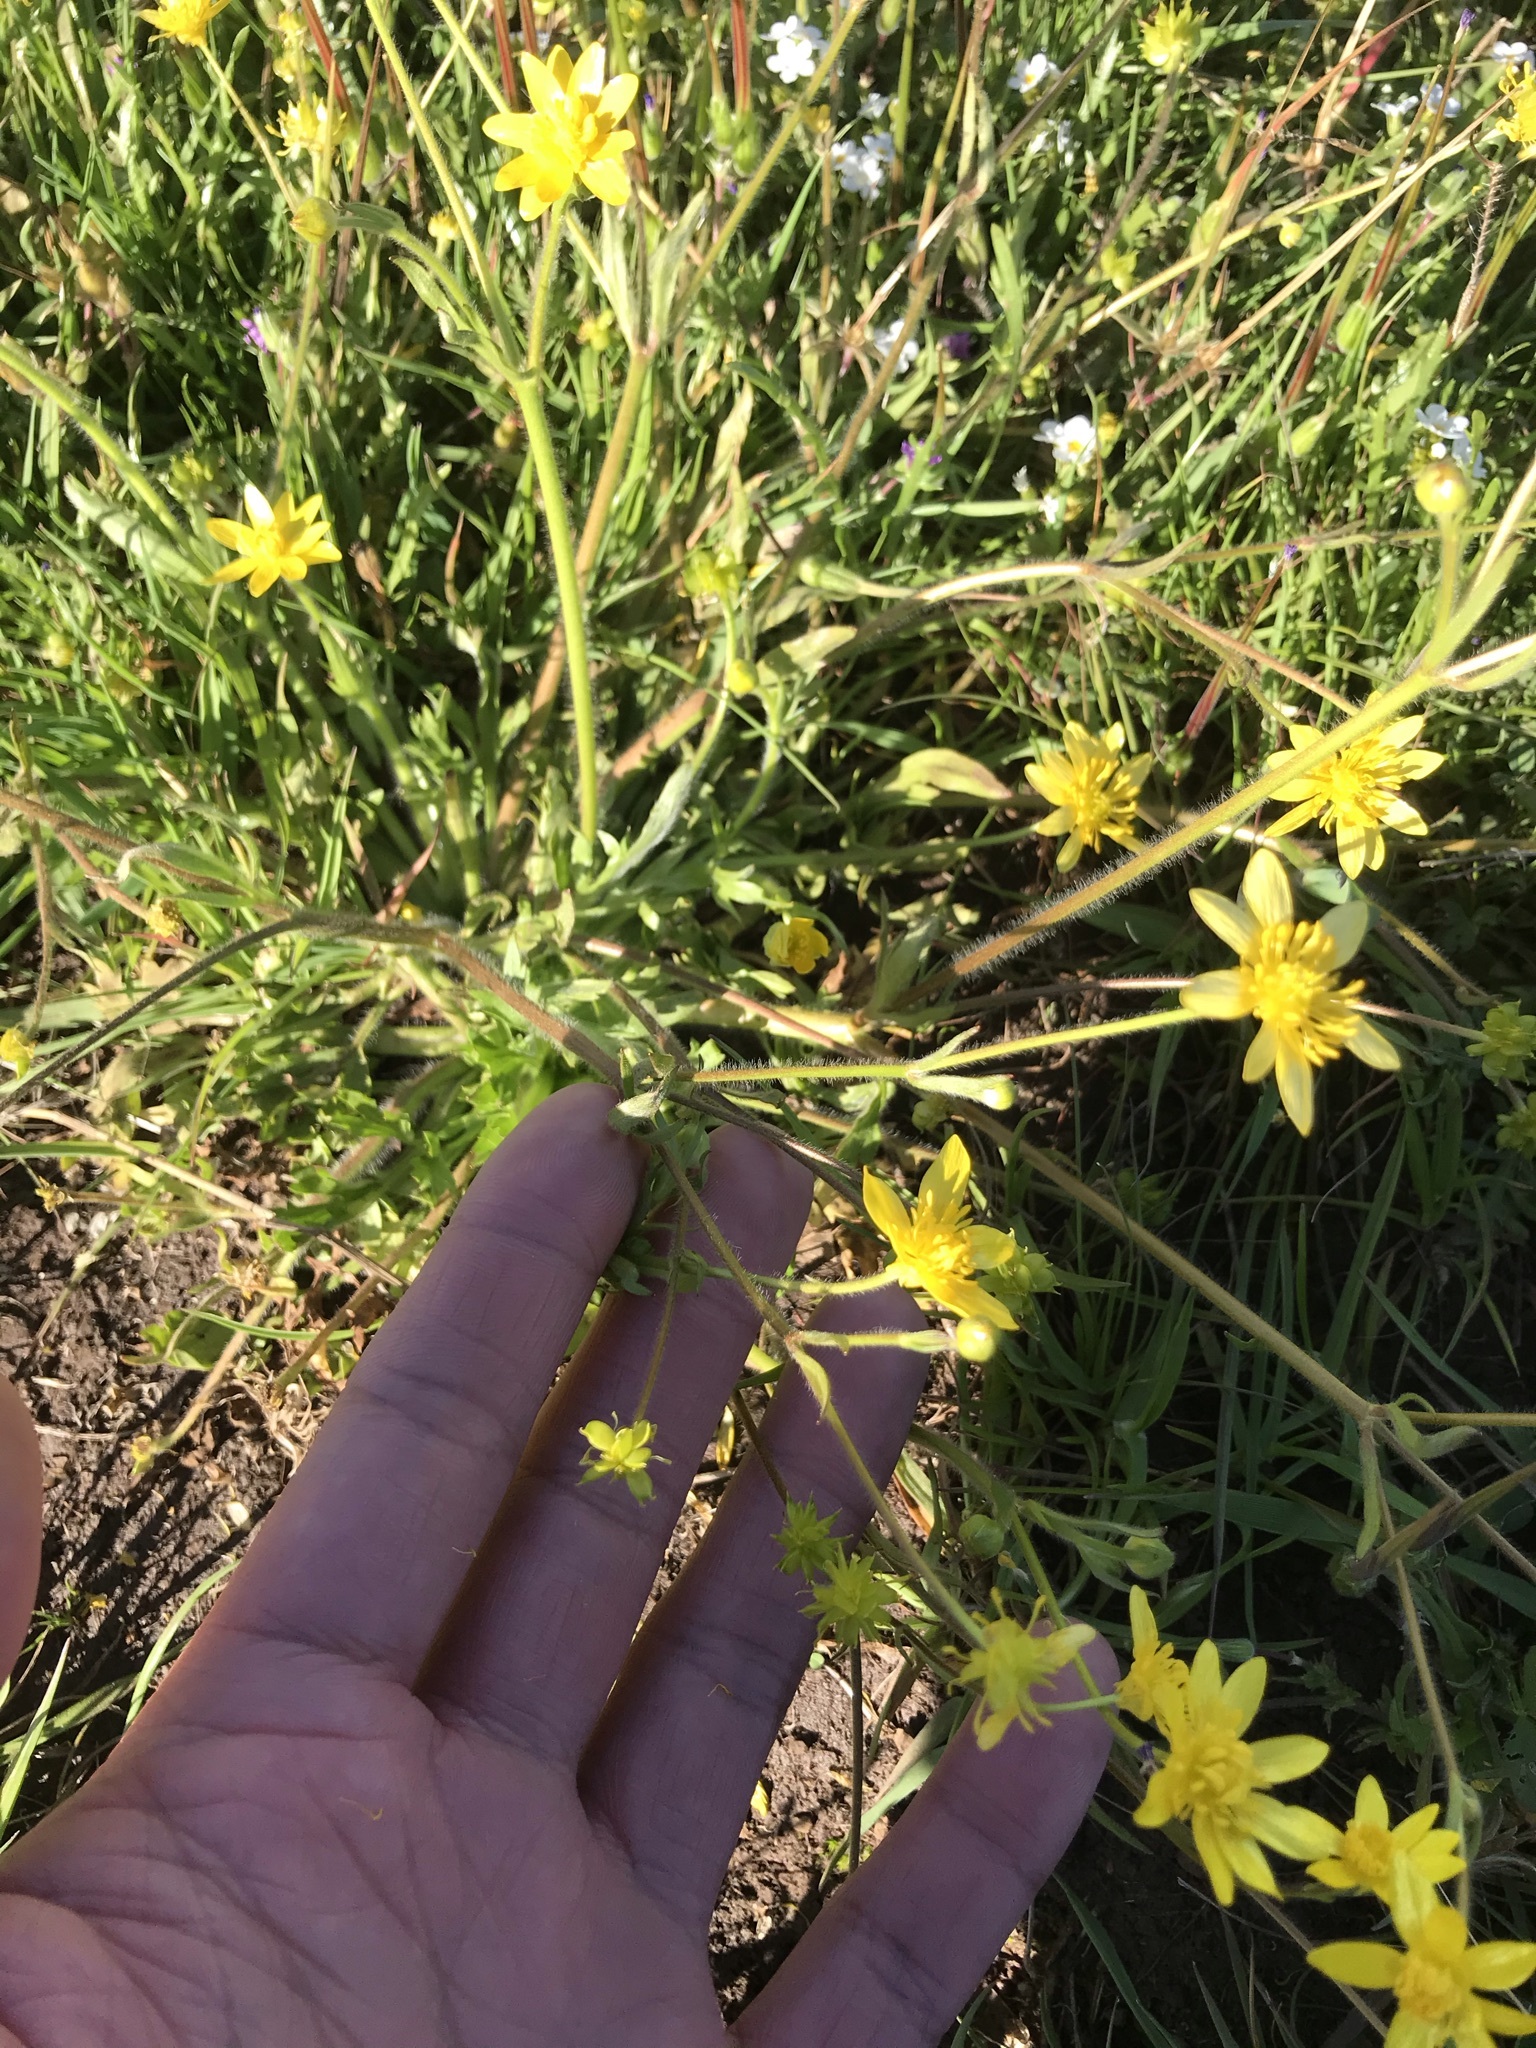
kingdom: Plantae
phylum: Tracheophyta
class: Magnoliopsida
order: Asterales
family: Asteraceae
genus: Blennosperma
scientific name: Blennosperma nanum
